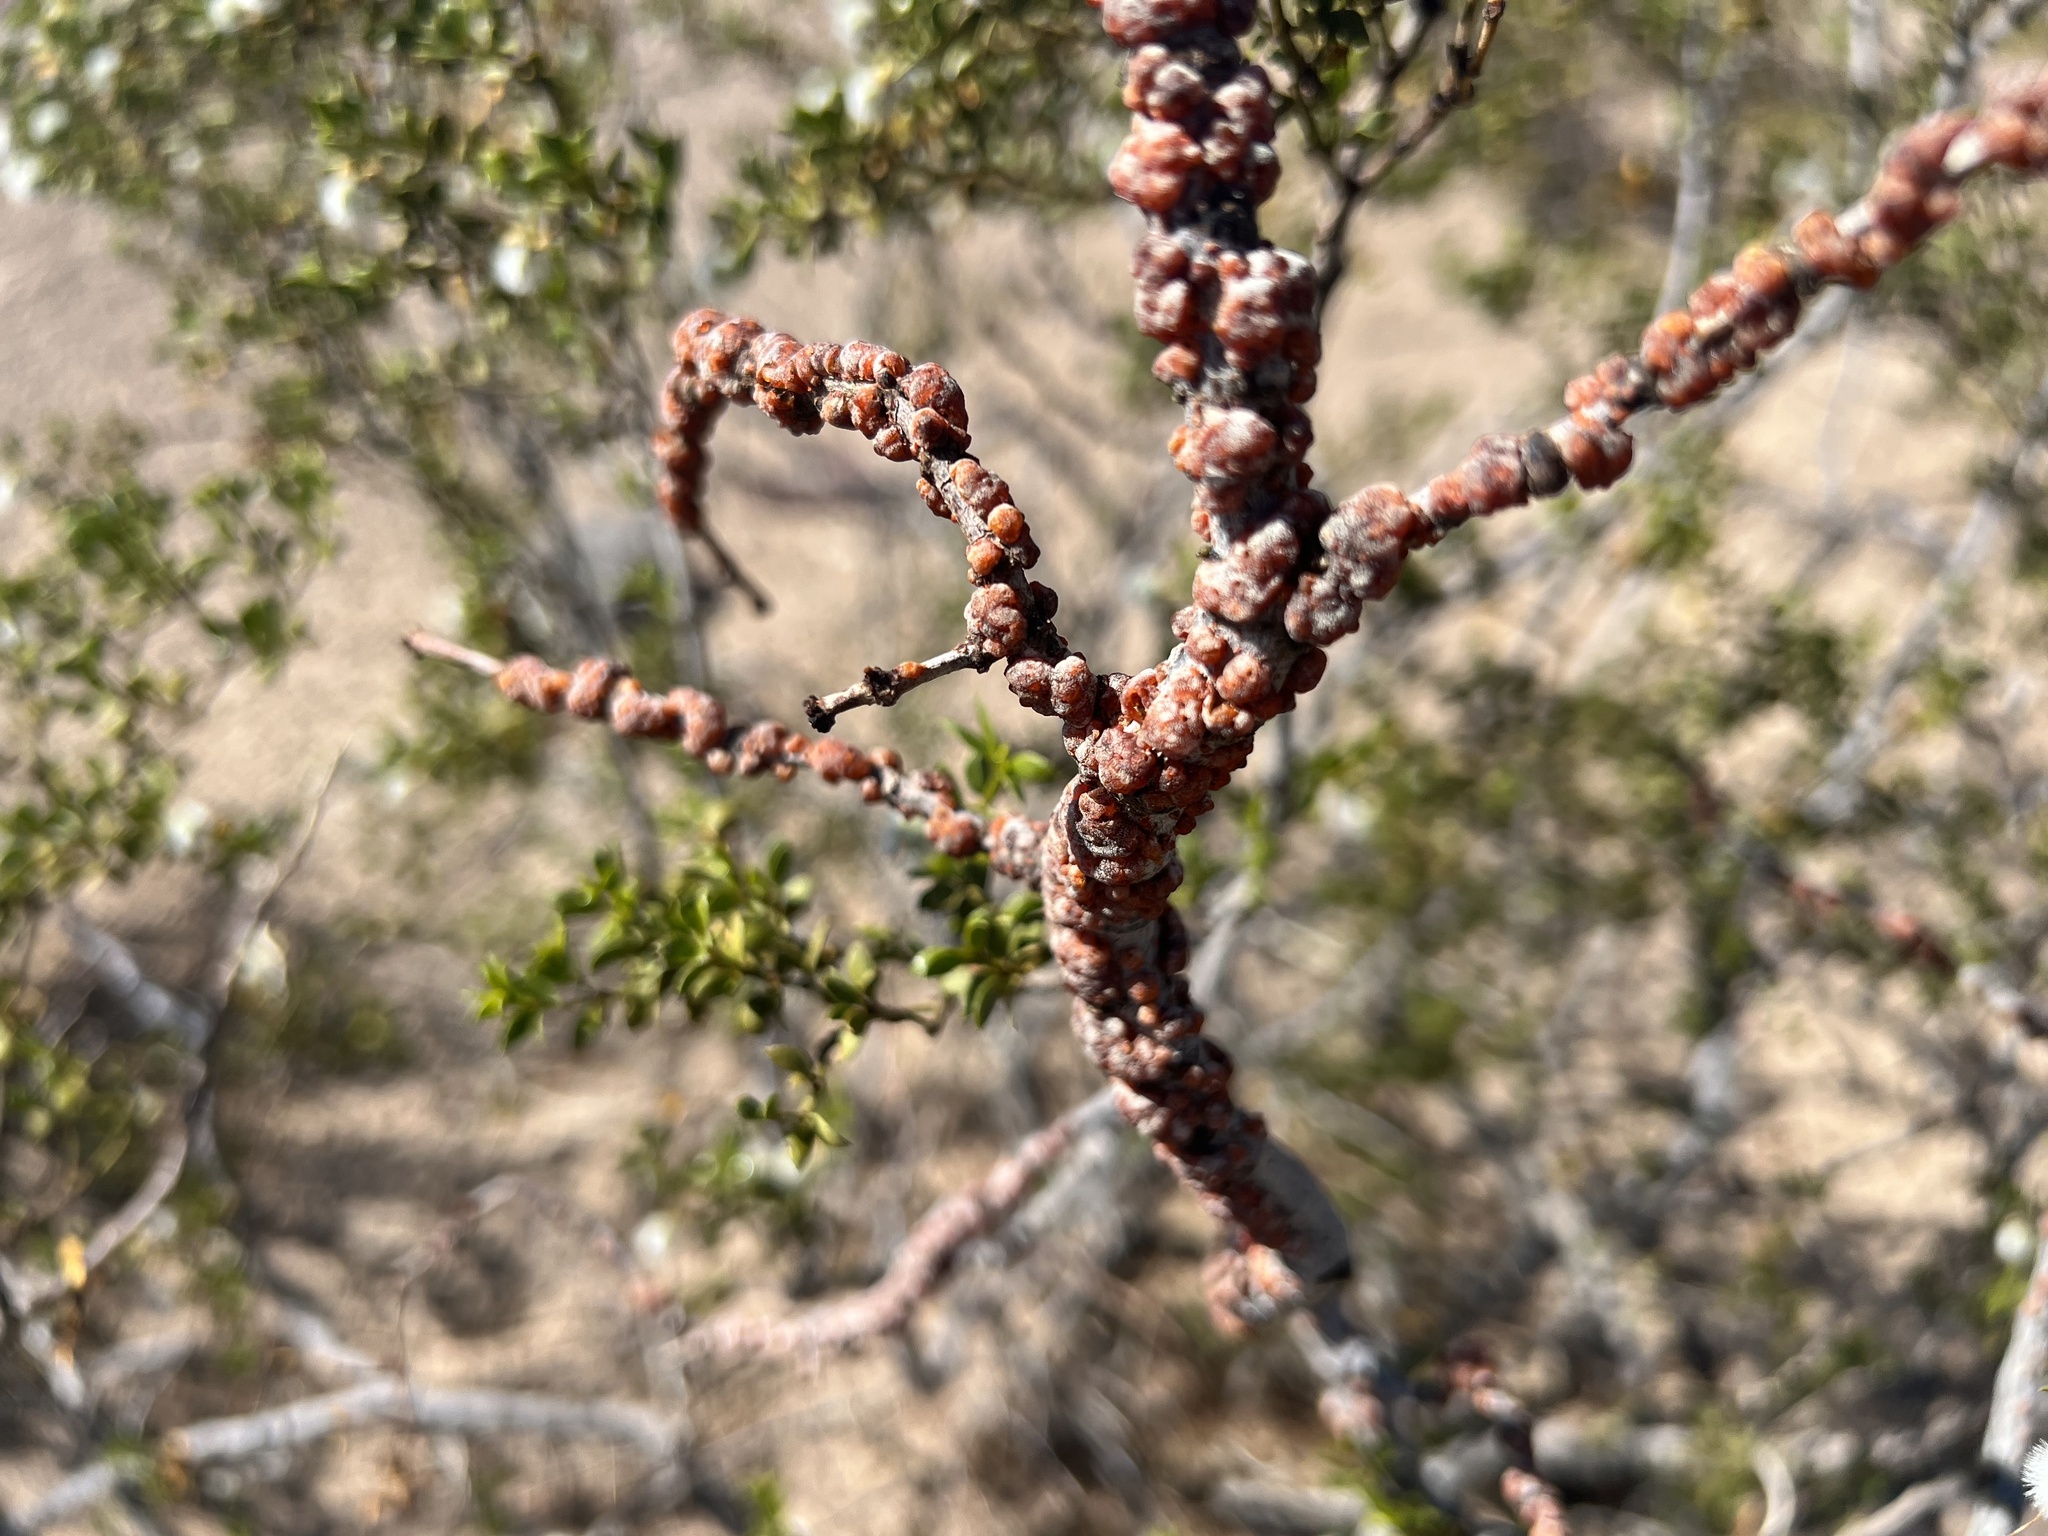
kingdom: Animalia
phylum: Arthropoda
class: Insecta
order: Hemiptera
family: Kerriidae
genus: Tachardiella
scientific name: Tachardiella larreae
